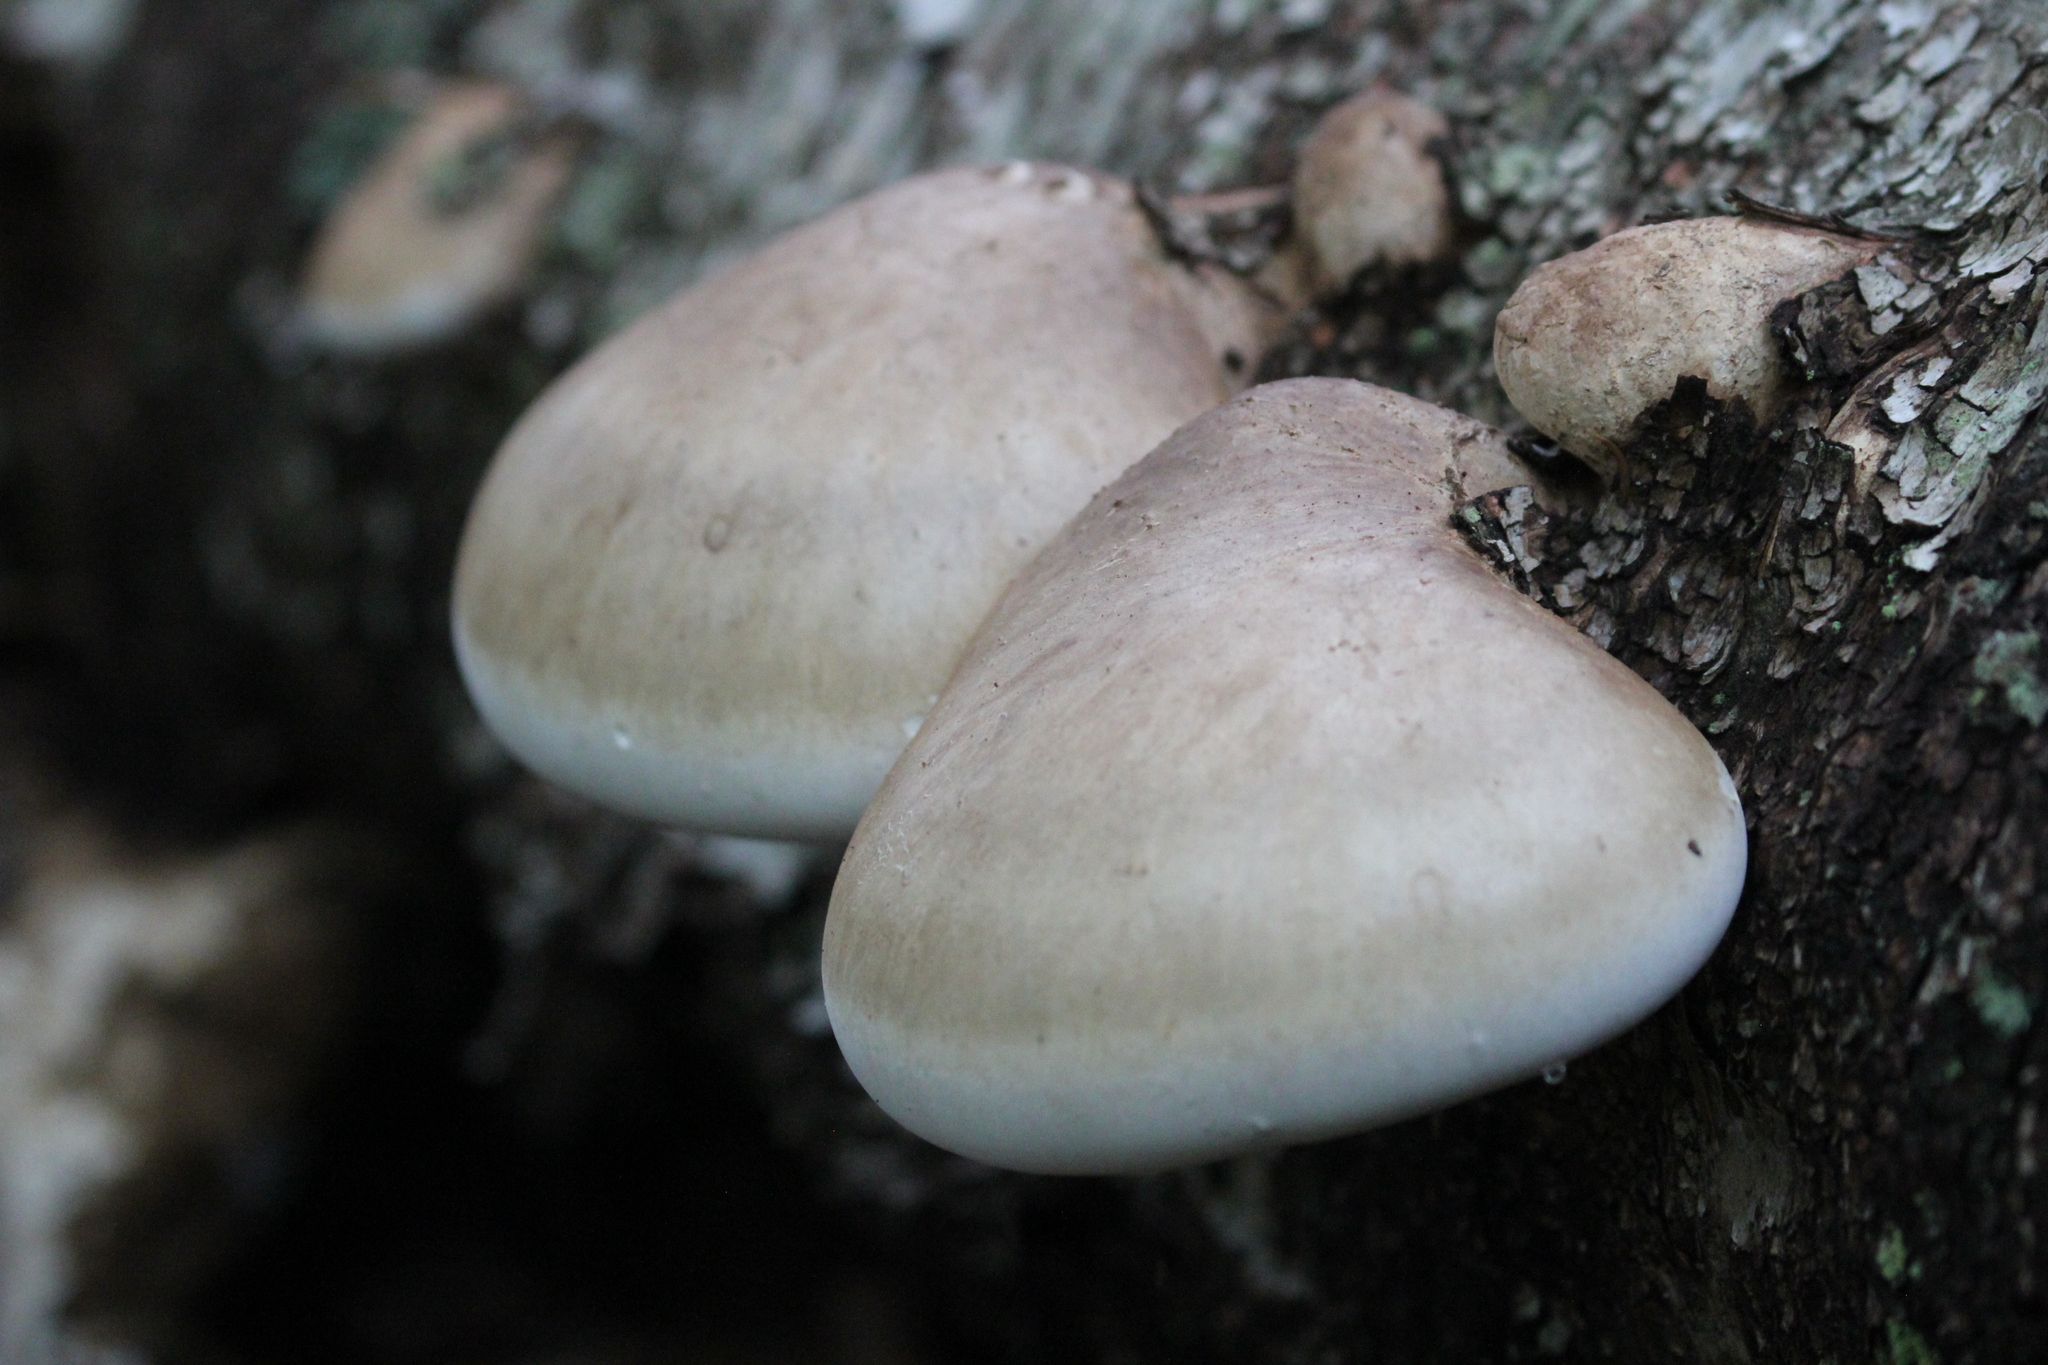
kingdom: Fungi
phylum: Basidiomycota
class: Agaricomycetes
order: Polyporales
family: Fomitopsidaceae
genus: Fomitopsis
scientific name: Fomitopsis betulina
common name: Birch polypore
